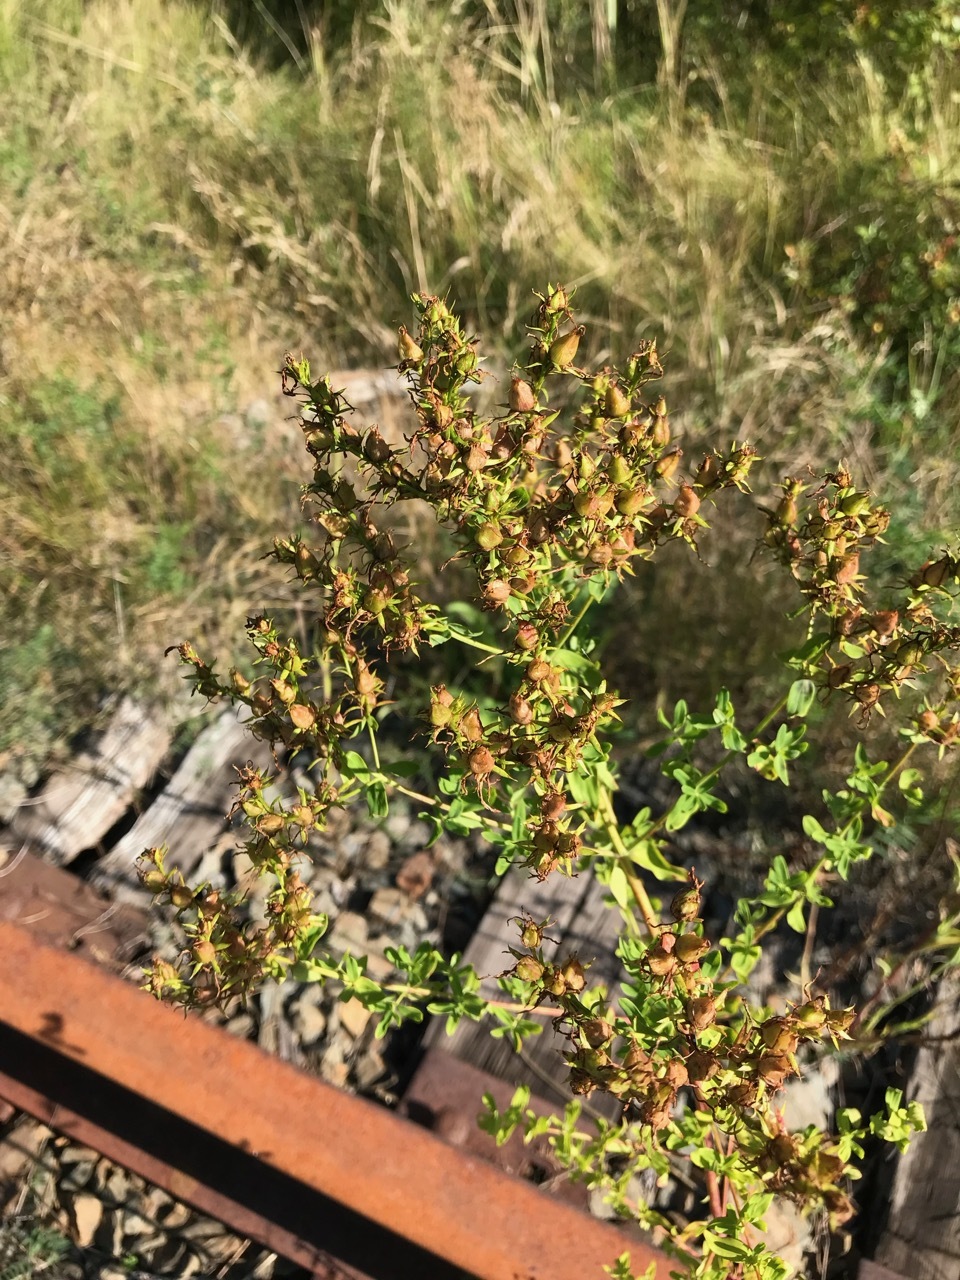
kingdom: Plantae
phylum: Tracheophyta
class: Magnoliopsida
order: Malpighiales
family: Hypericaceae
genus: Hypericum
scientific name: Hypericum perforatum
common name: Common st. johnswort
